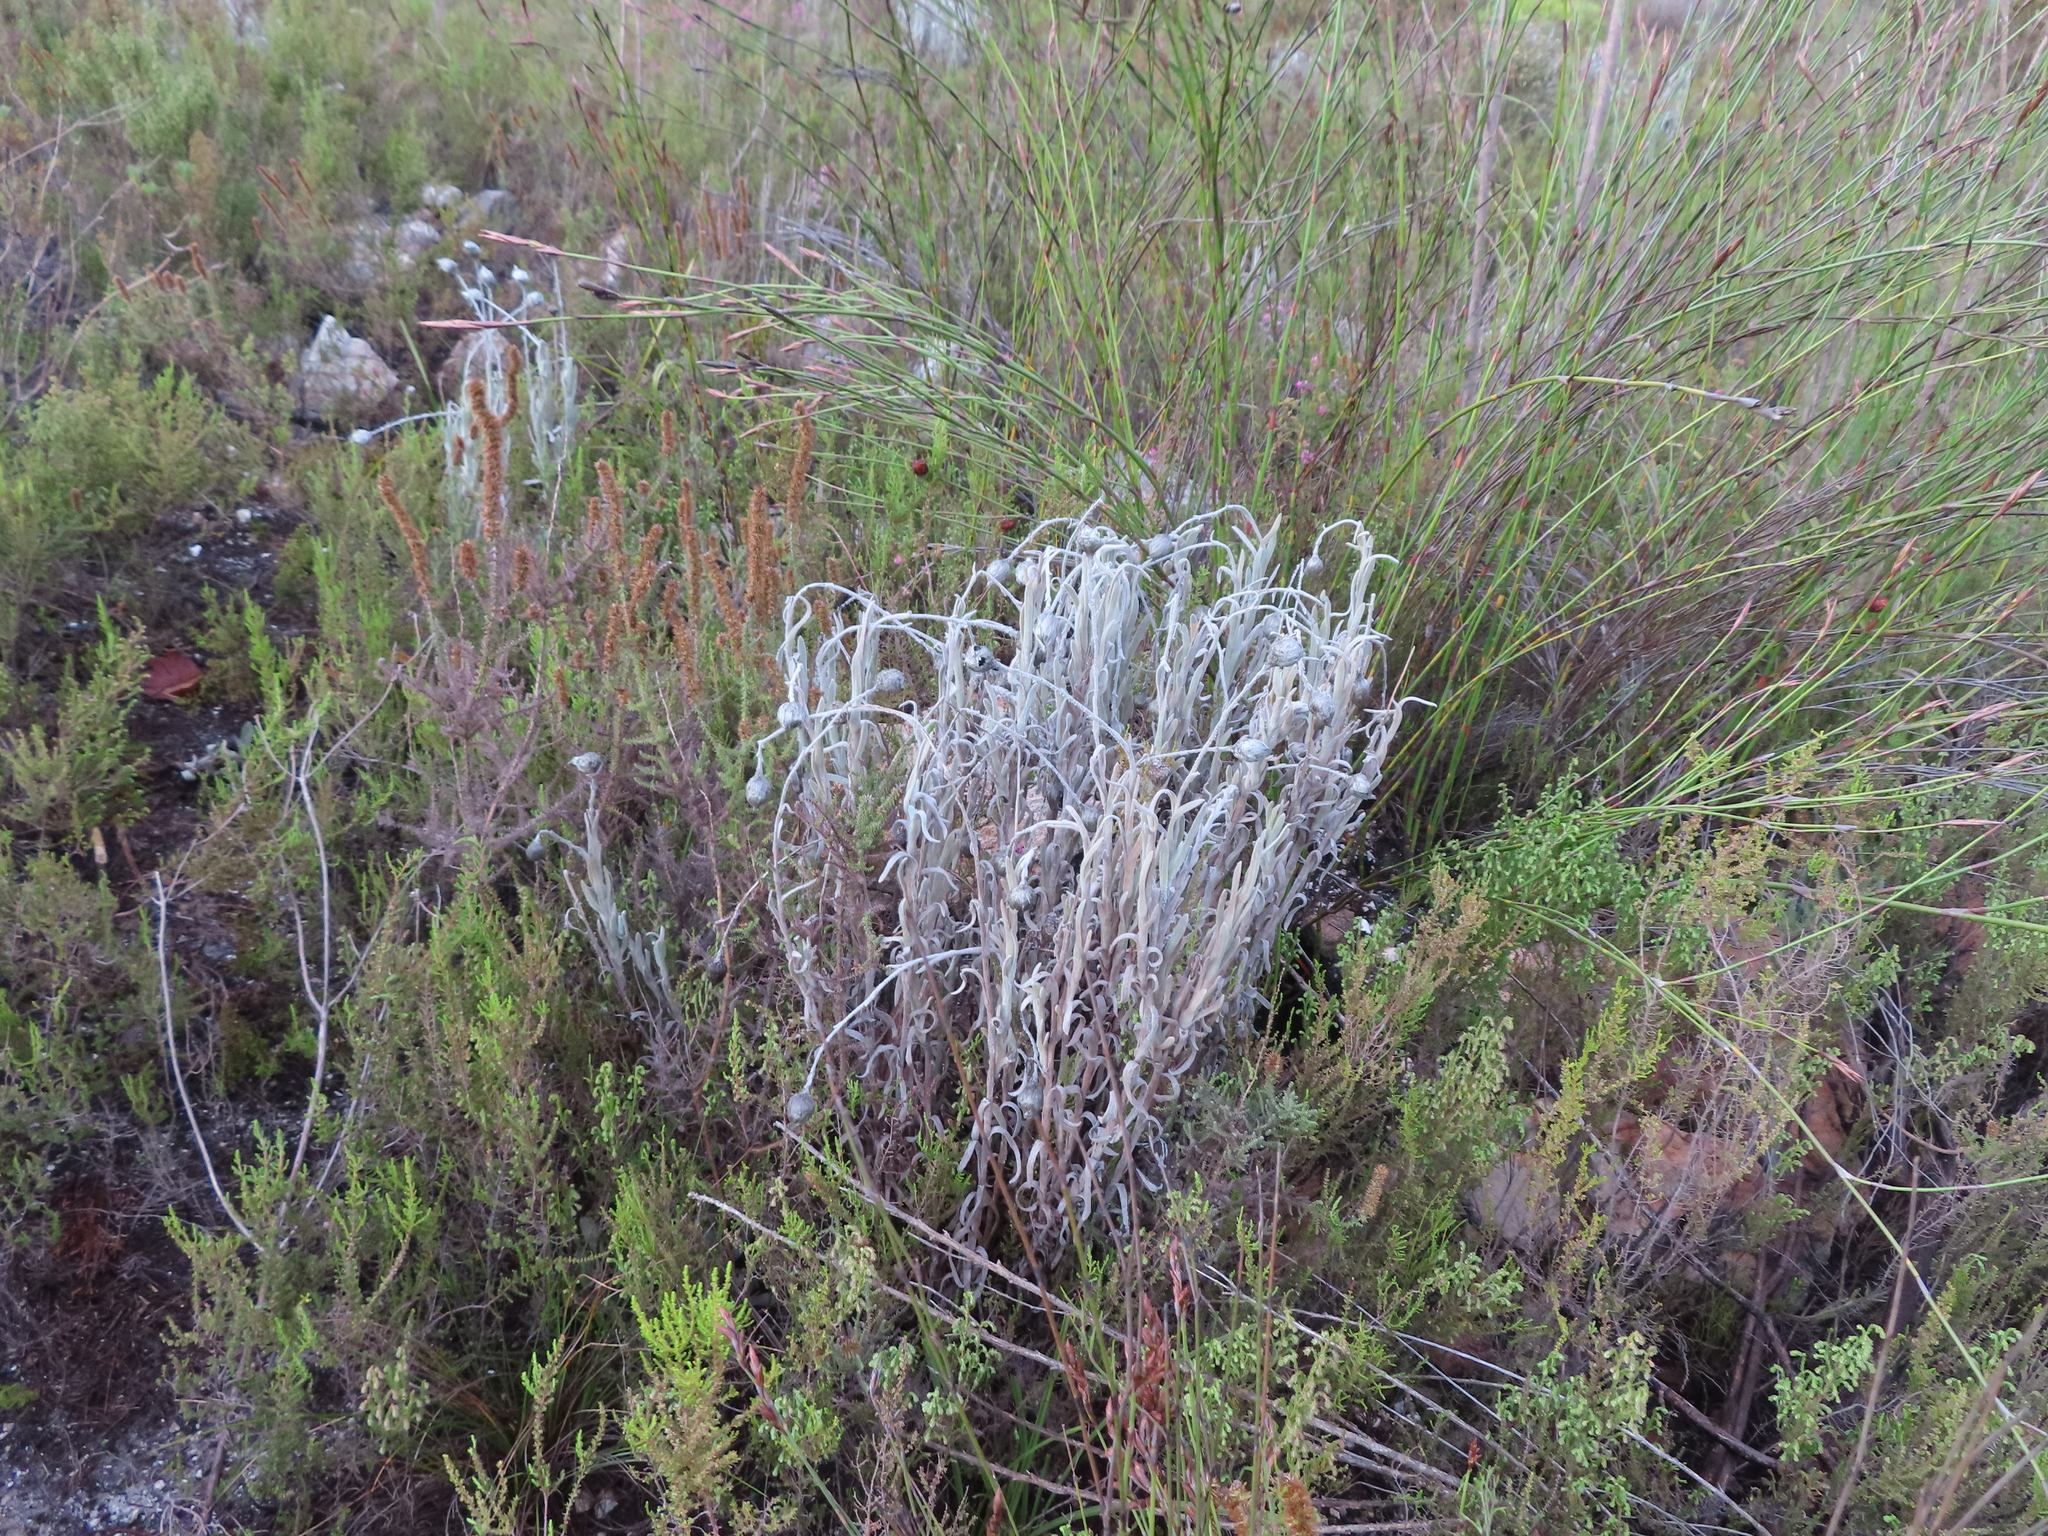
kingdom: Plantae
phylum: Tracheophyta
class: Magnoliopsida
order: Asterales
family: Asteraceae
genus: Syncarpha
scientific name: Syncarpha vestita
